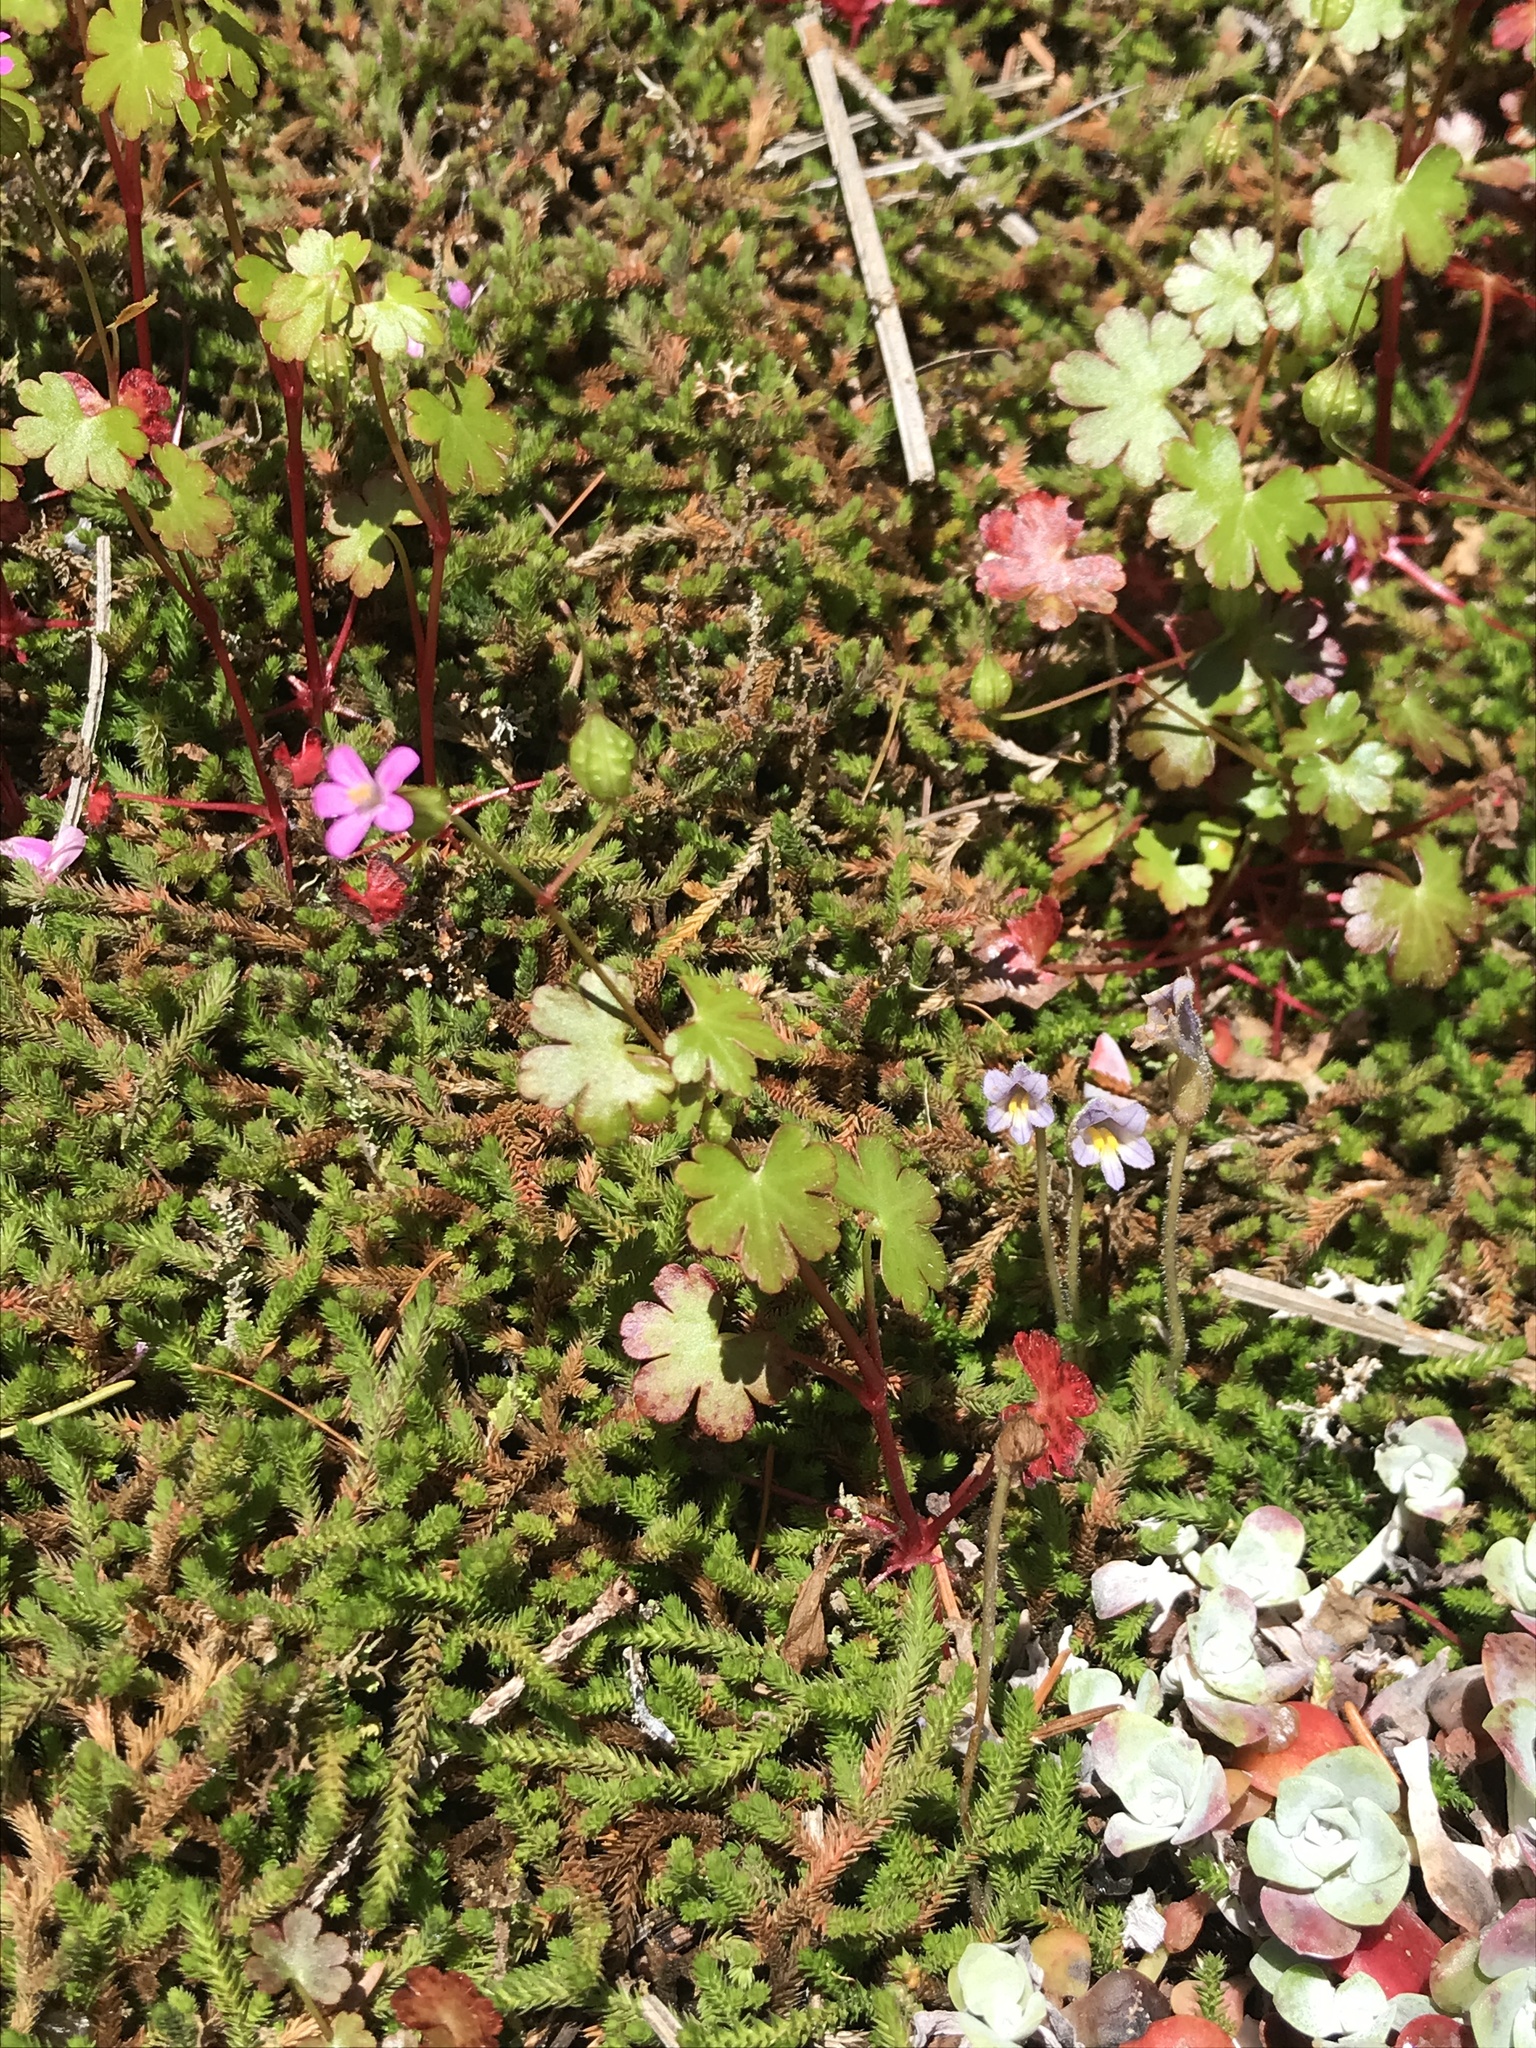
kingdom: Plantae
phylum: Tracheophyta
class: Magnoliopsida
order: Geraniales
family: Geraniaceae
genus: Geranium
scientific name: Geranium lucidum
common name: Shining crane's-bill
